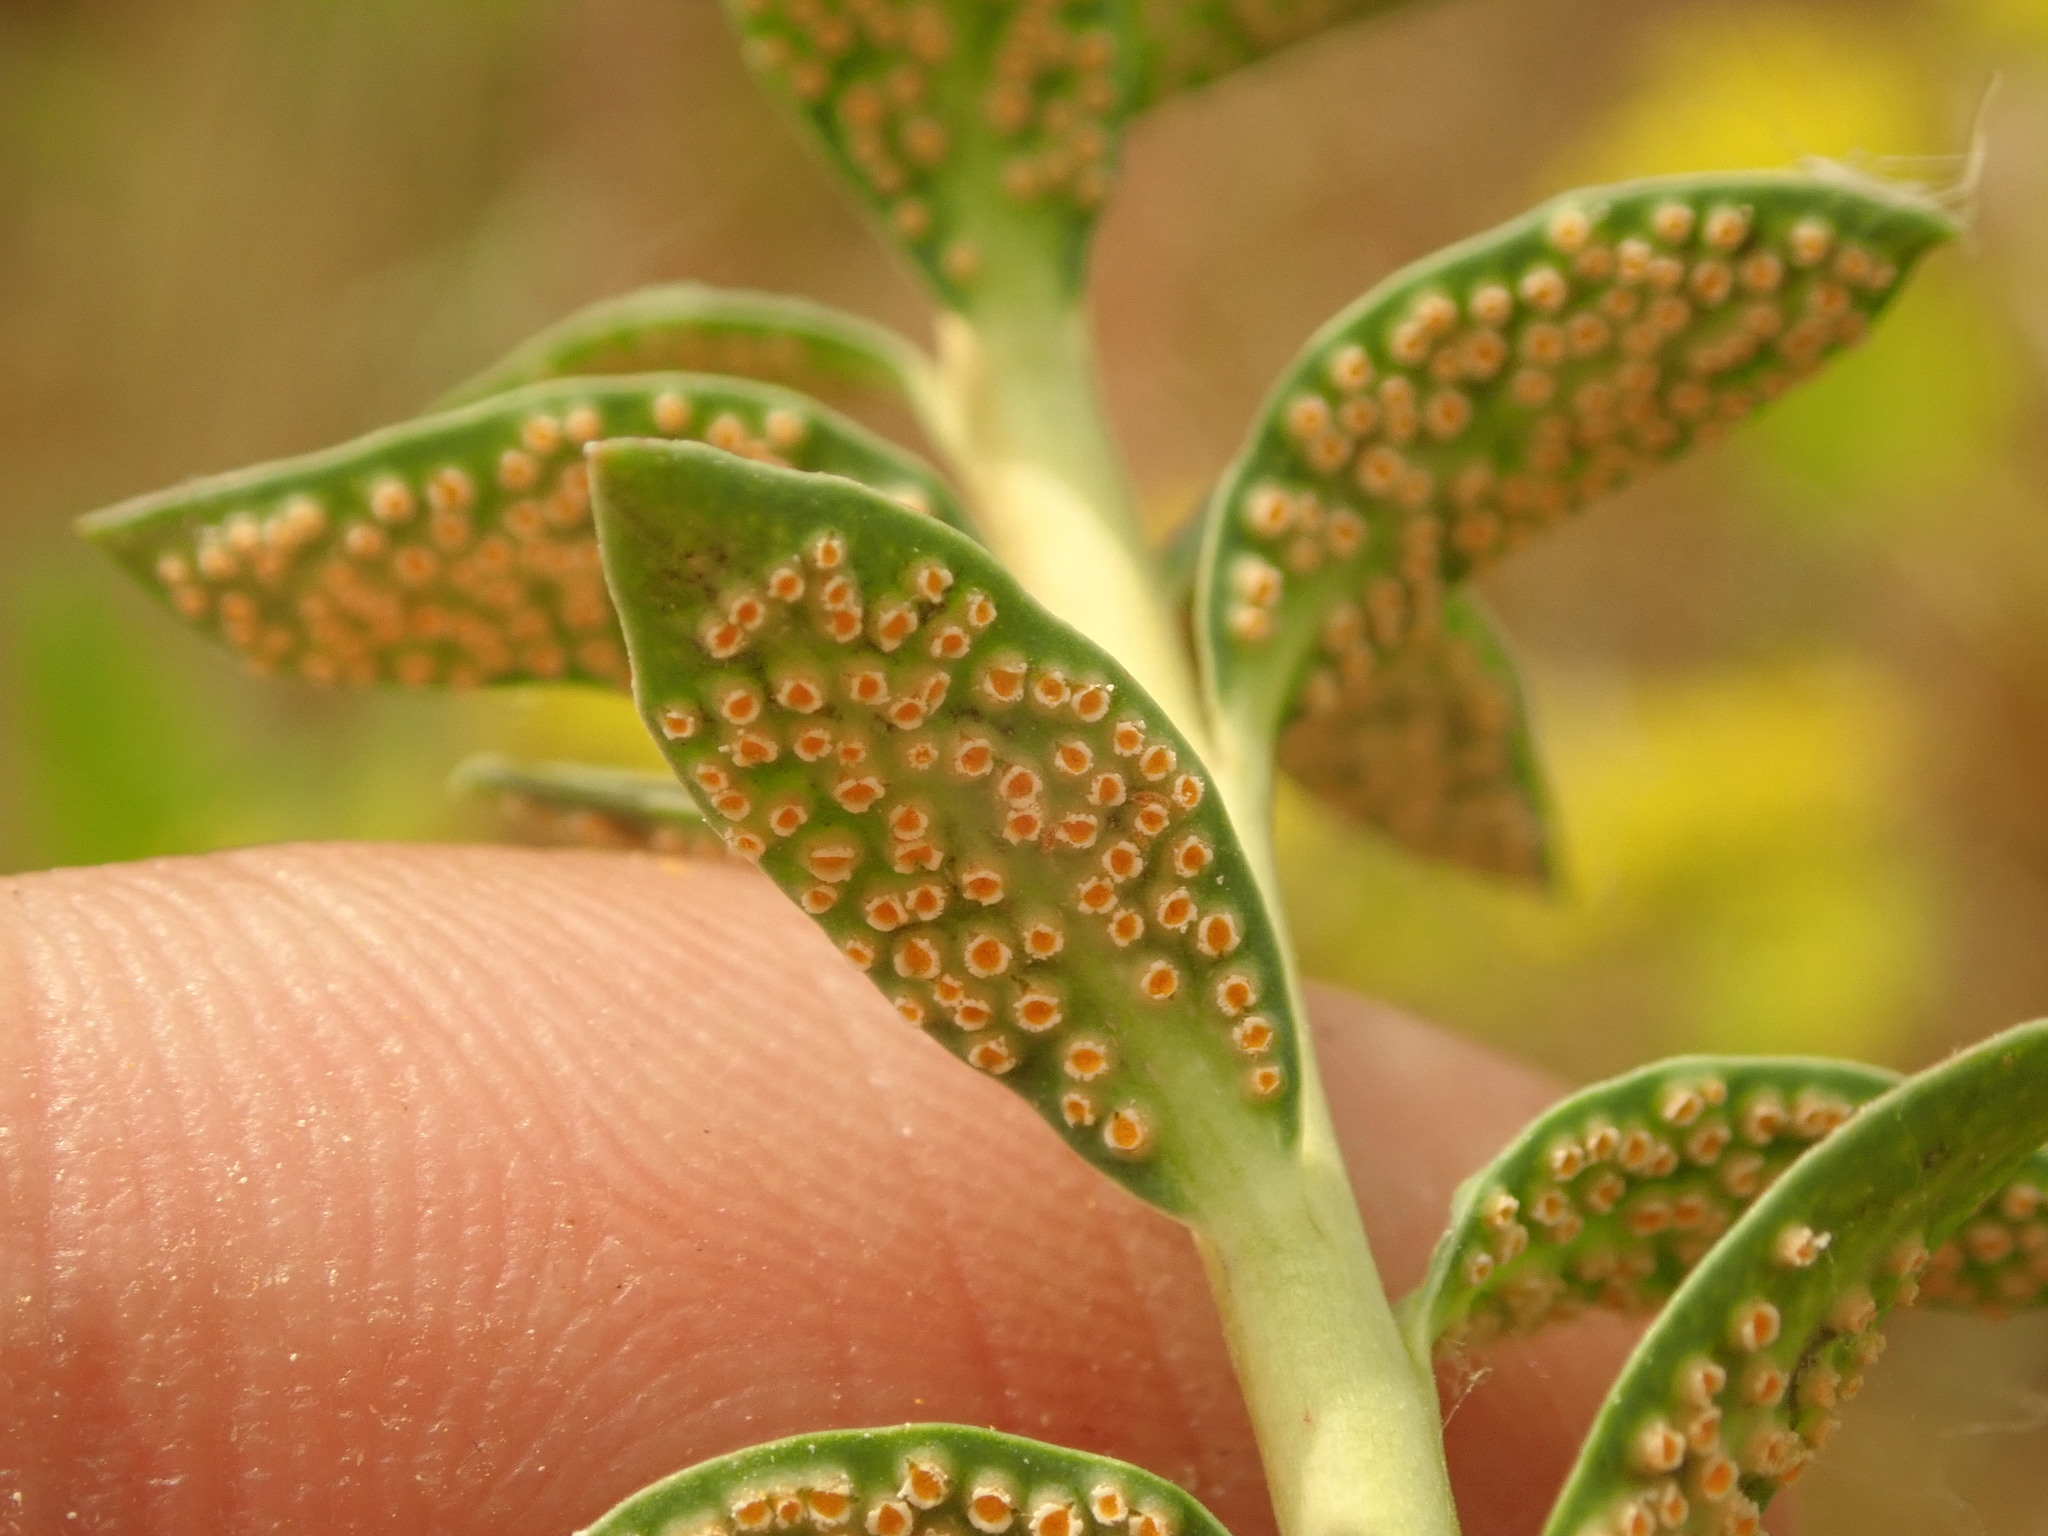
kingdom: Fungi
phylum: Basidiomycota
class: Pucciniomycetes
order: Pucciniales
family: Pucciniaceae
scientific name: Pucciniaceae
